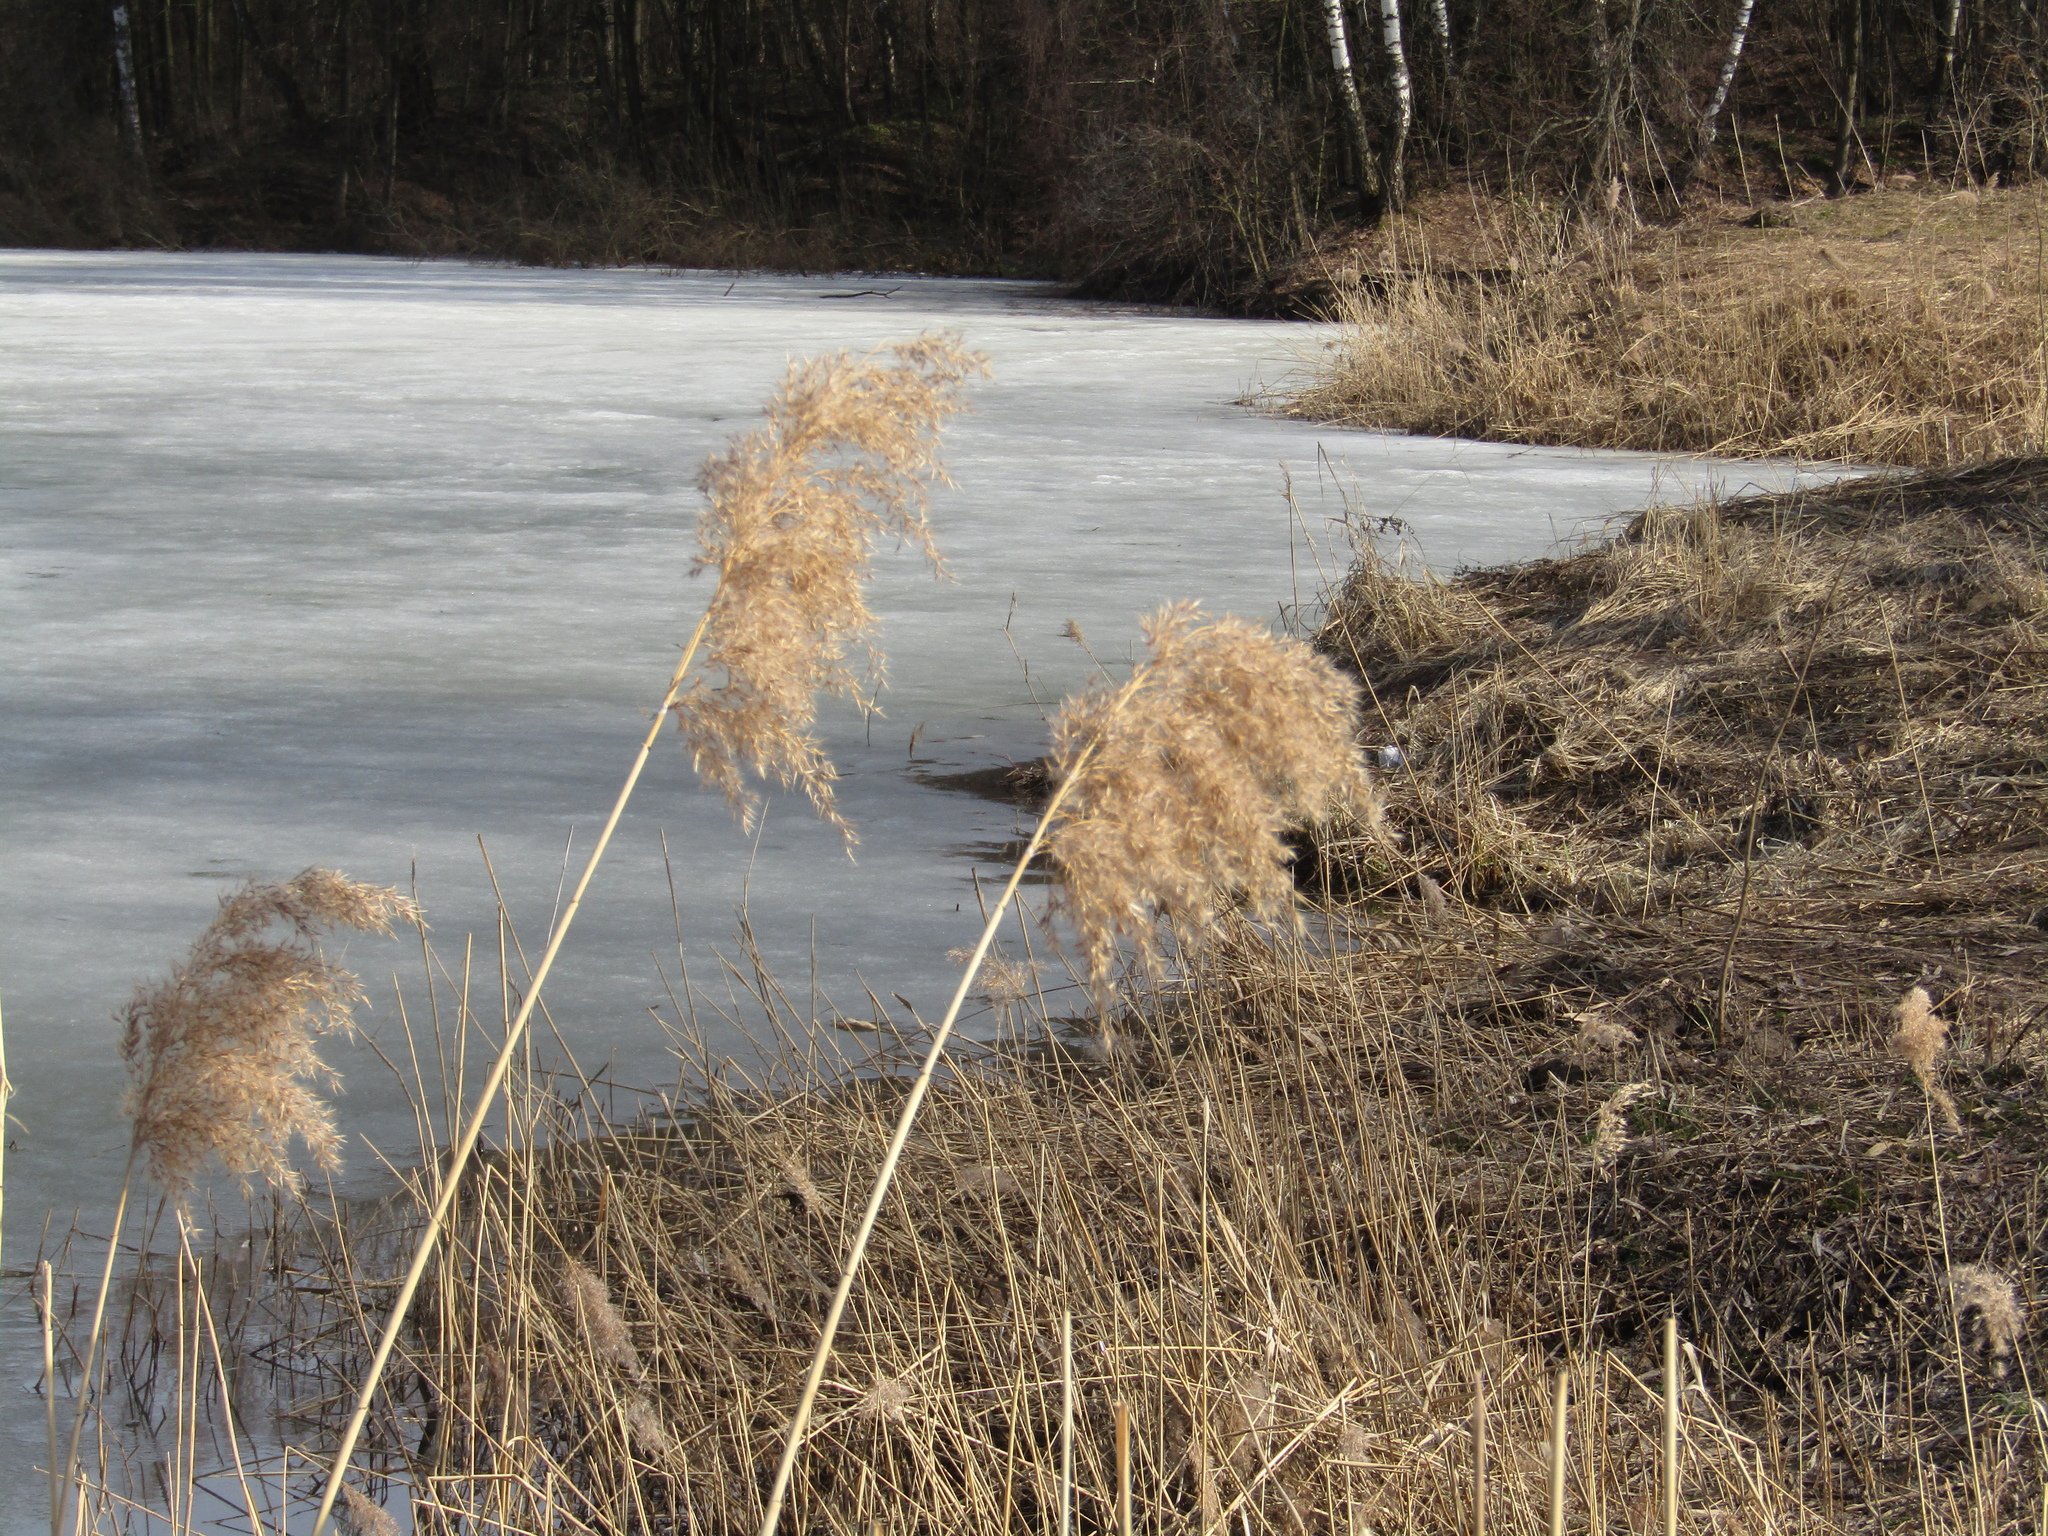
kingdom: Plantae
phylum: Tracheophyta
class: Liliopsida
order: Poales
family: Poaceae
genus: Phragmites
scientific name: Phragmites australis
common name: Common reed
